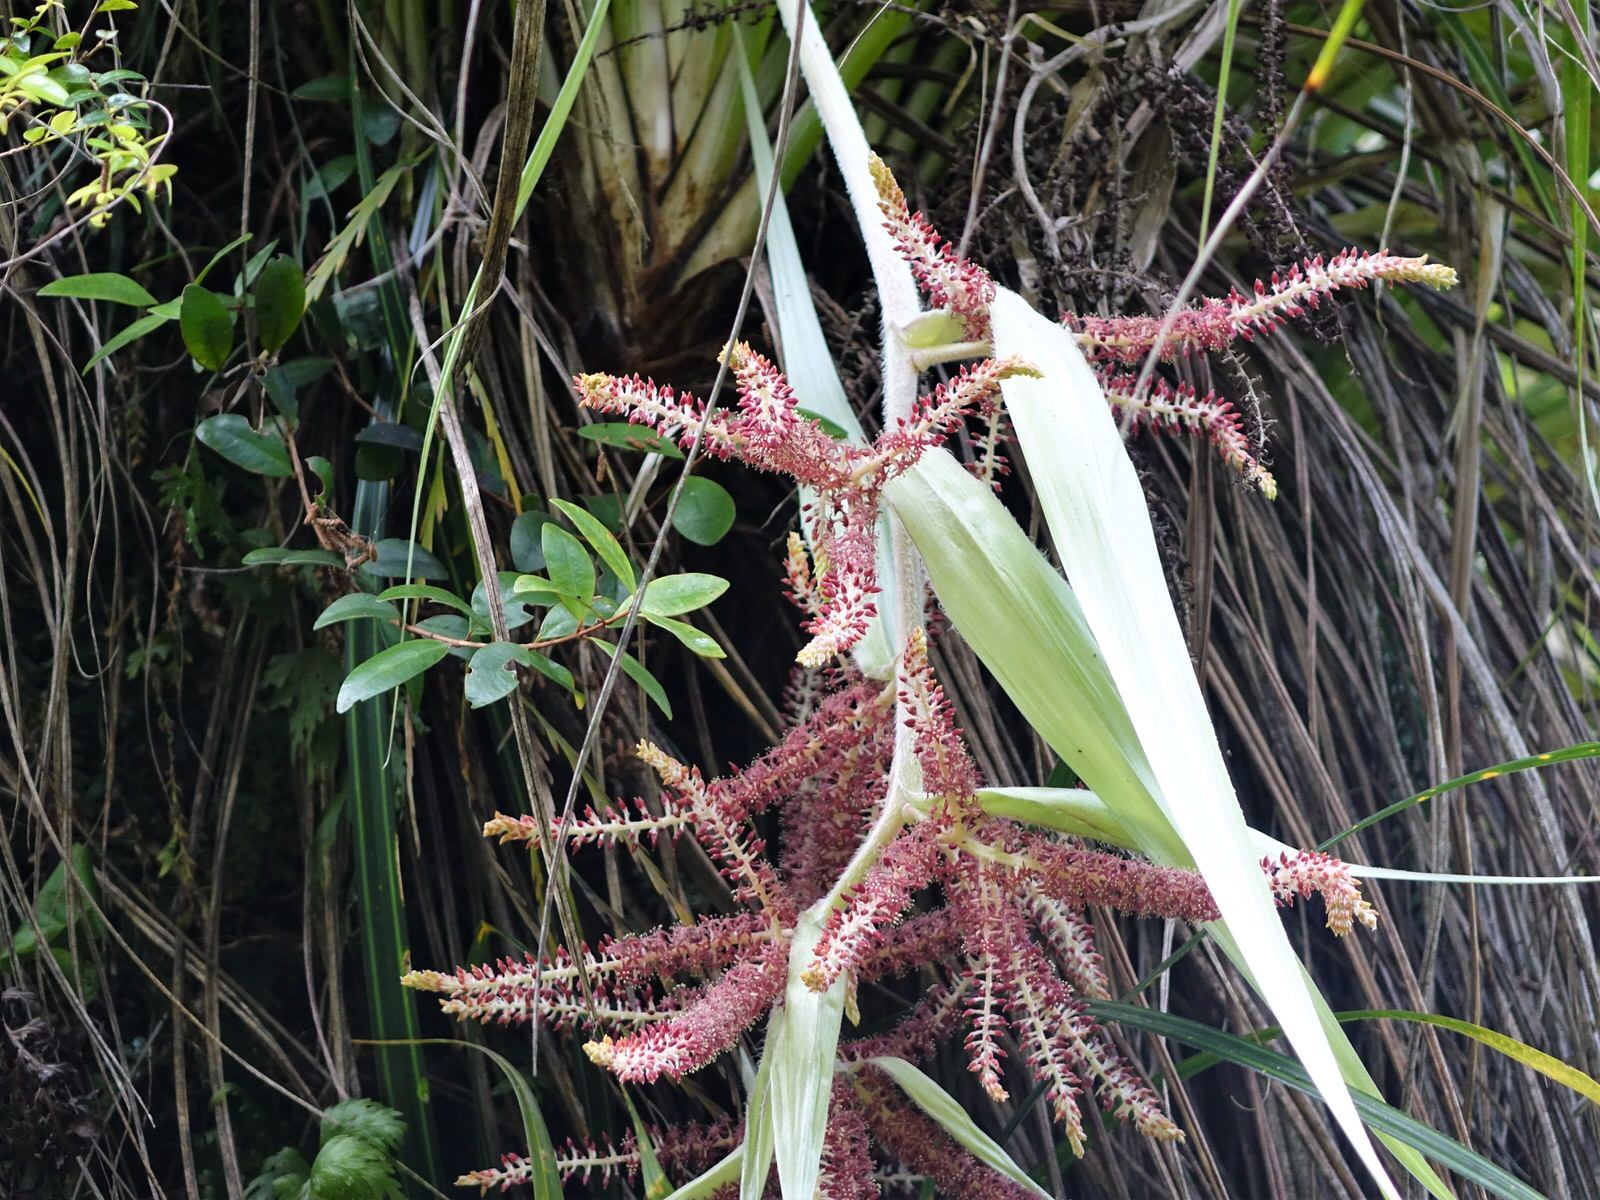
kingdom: Plantae
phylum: Tracheophyta
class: Liliopsida
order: Asparagales
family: Asteliaceae
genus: Astelia
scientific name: Astelia solandri
